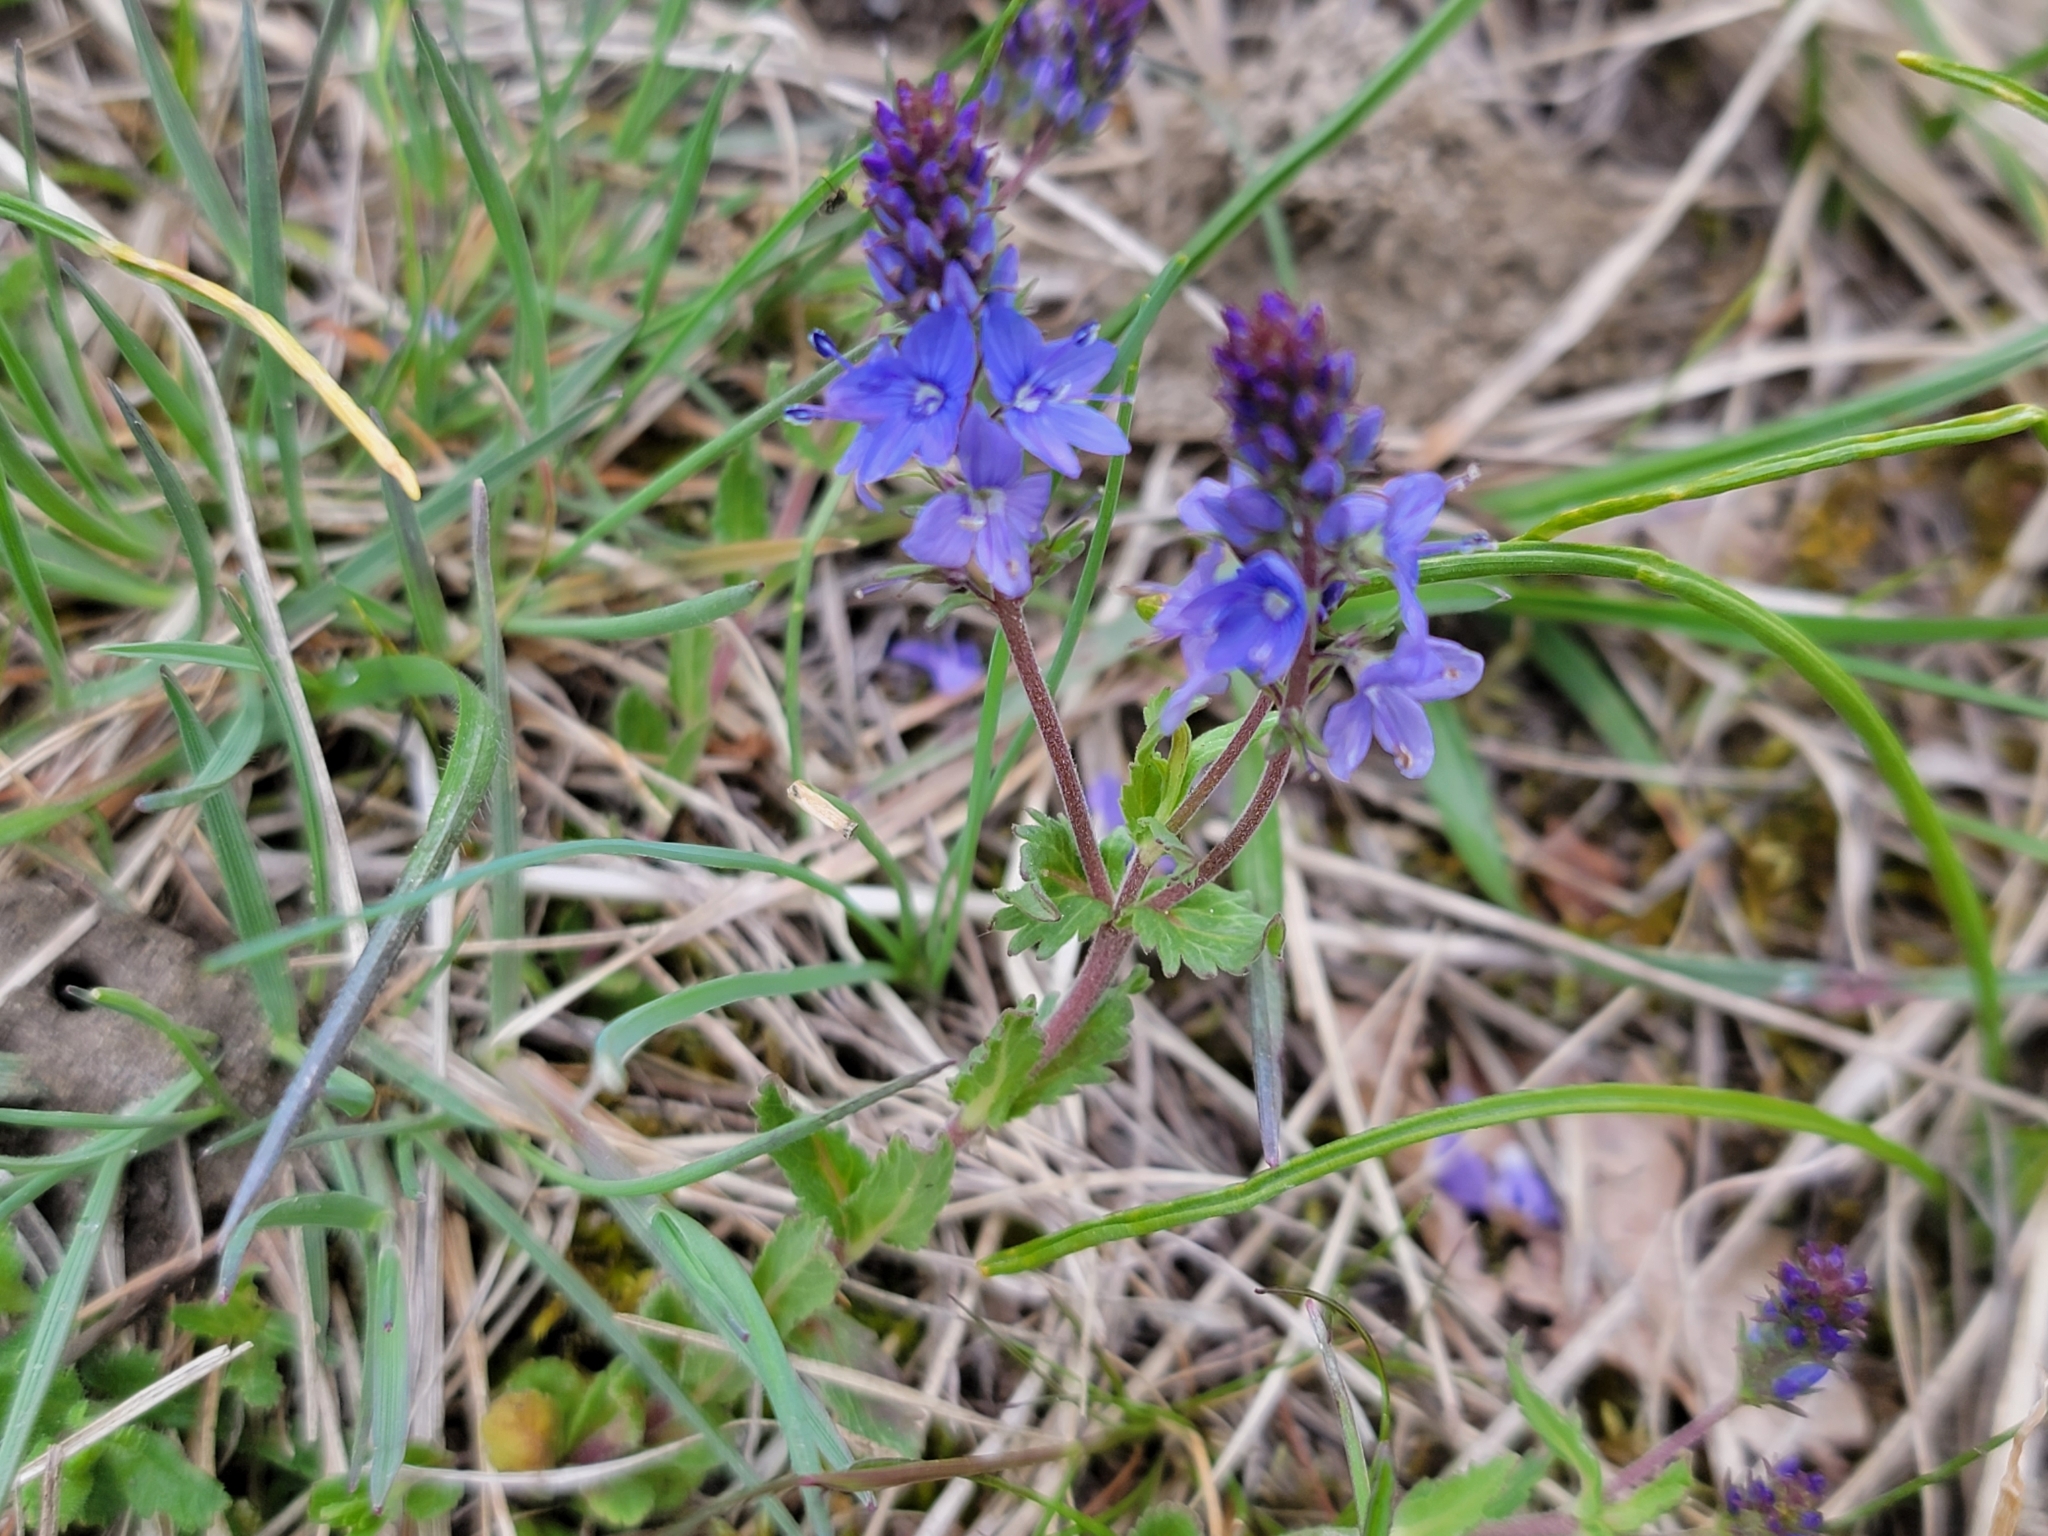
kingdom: Plantae
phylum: Tracheophyta
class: Magnoliopsida
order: Lamiales
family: Plantaginaceae
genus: Veronica
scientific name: Veronica prostrata
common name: Prostrate speedwell
